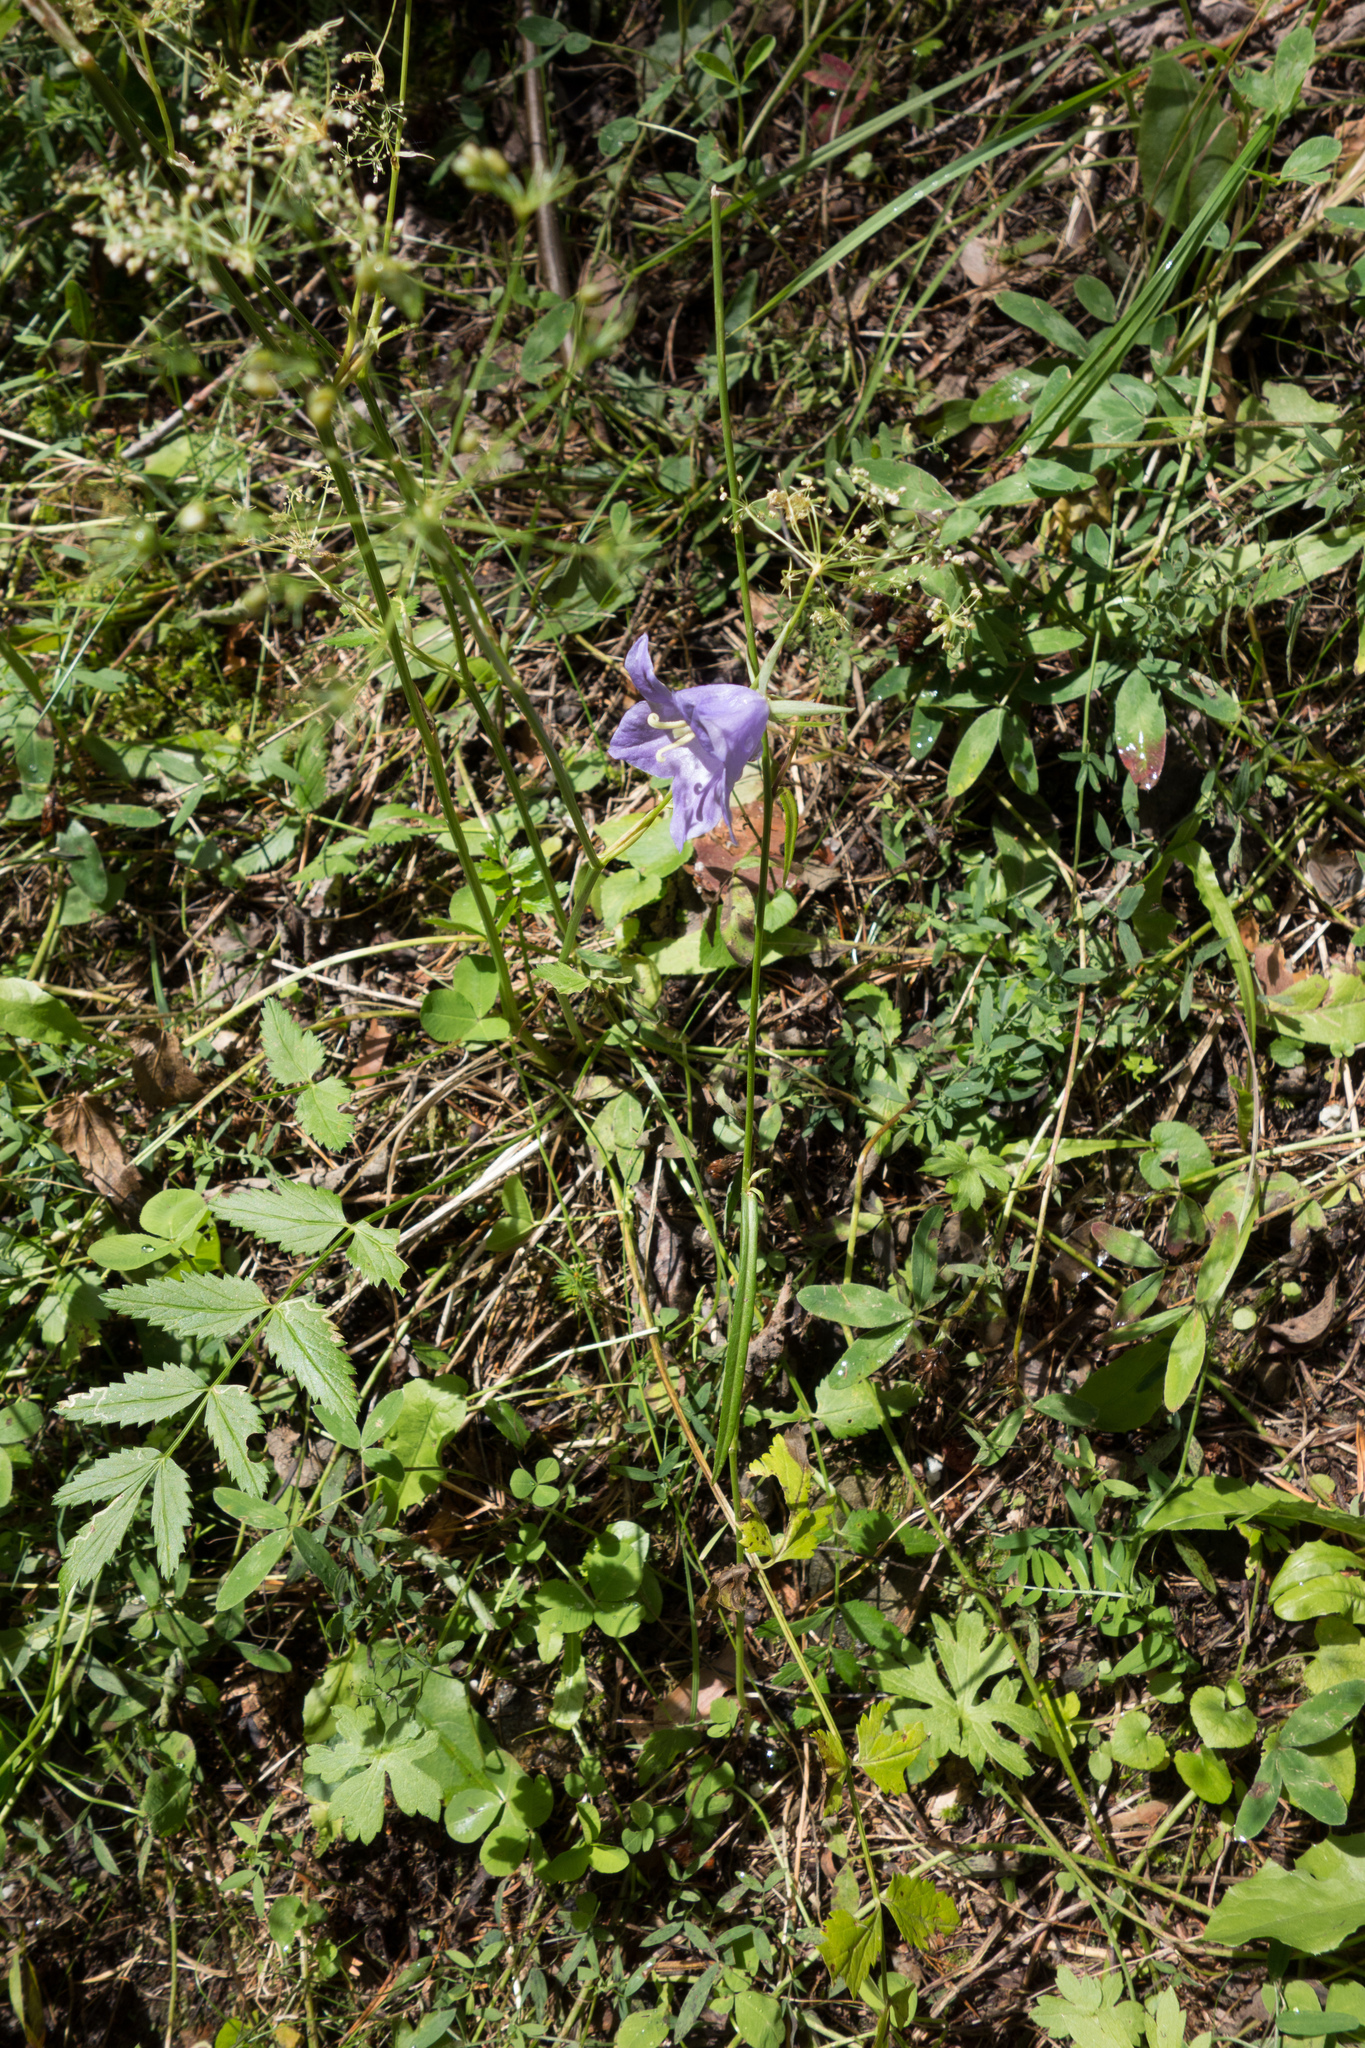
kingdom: Plantae
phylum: Tracheophyta
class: Magnoliopsida
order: Asterales
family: Campanulaceae
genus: Campanula
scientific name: Campanula persicifolia
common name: Peach-leaved bellflower
